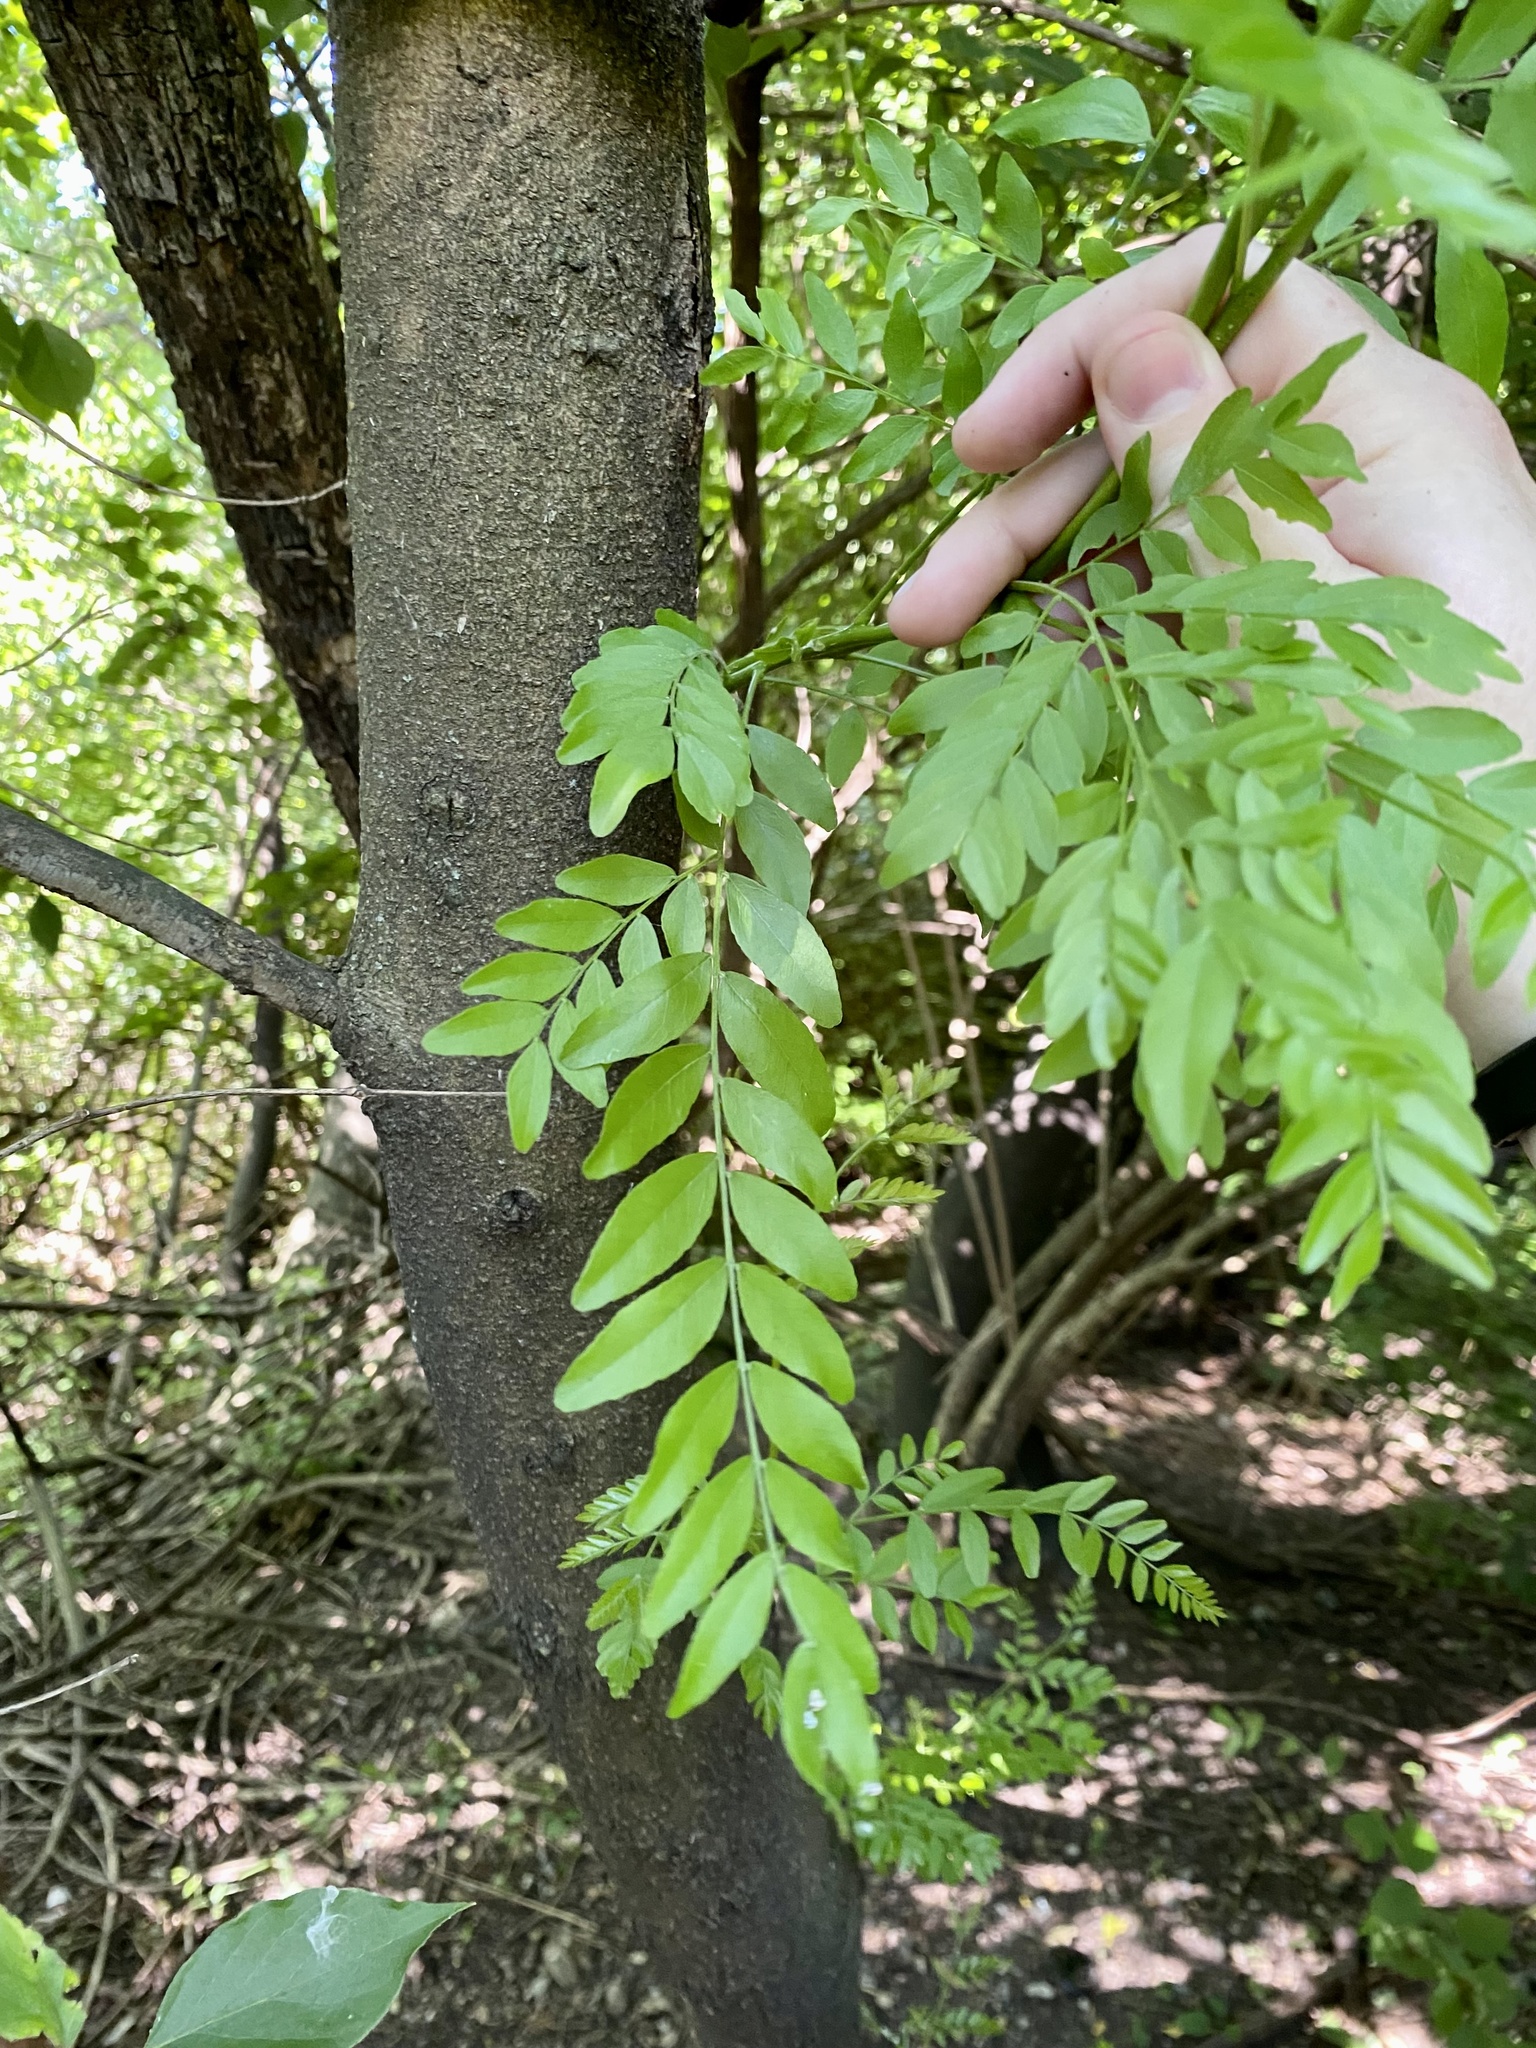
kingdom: Plantae
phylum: Tracheophyta
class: Magnoliopsida
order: Fabales
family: Fabaceae
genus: Gleditsia
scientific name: Gleditsia triacanthos
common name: Common honeylocust
